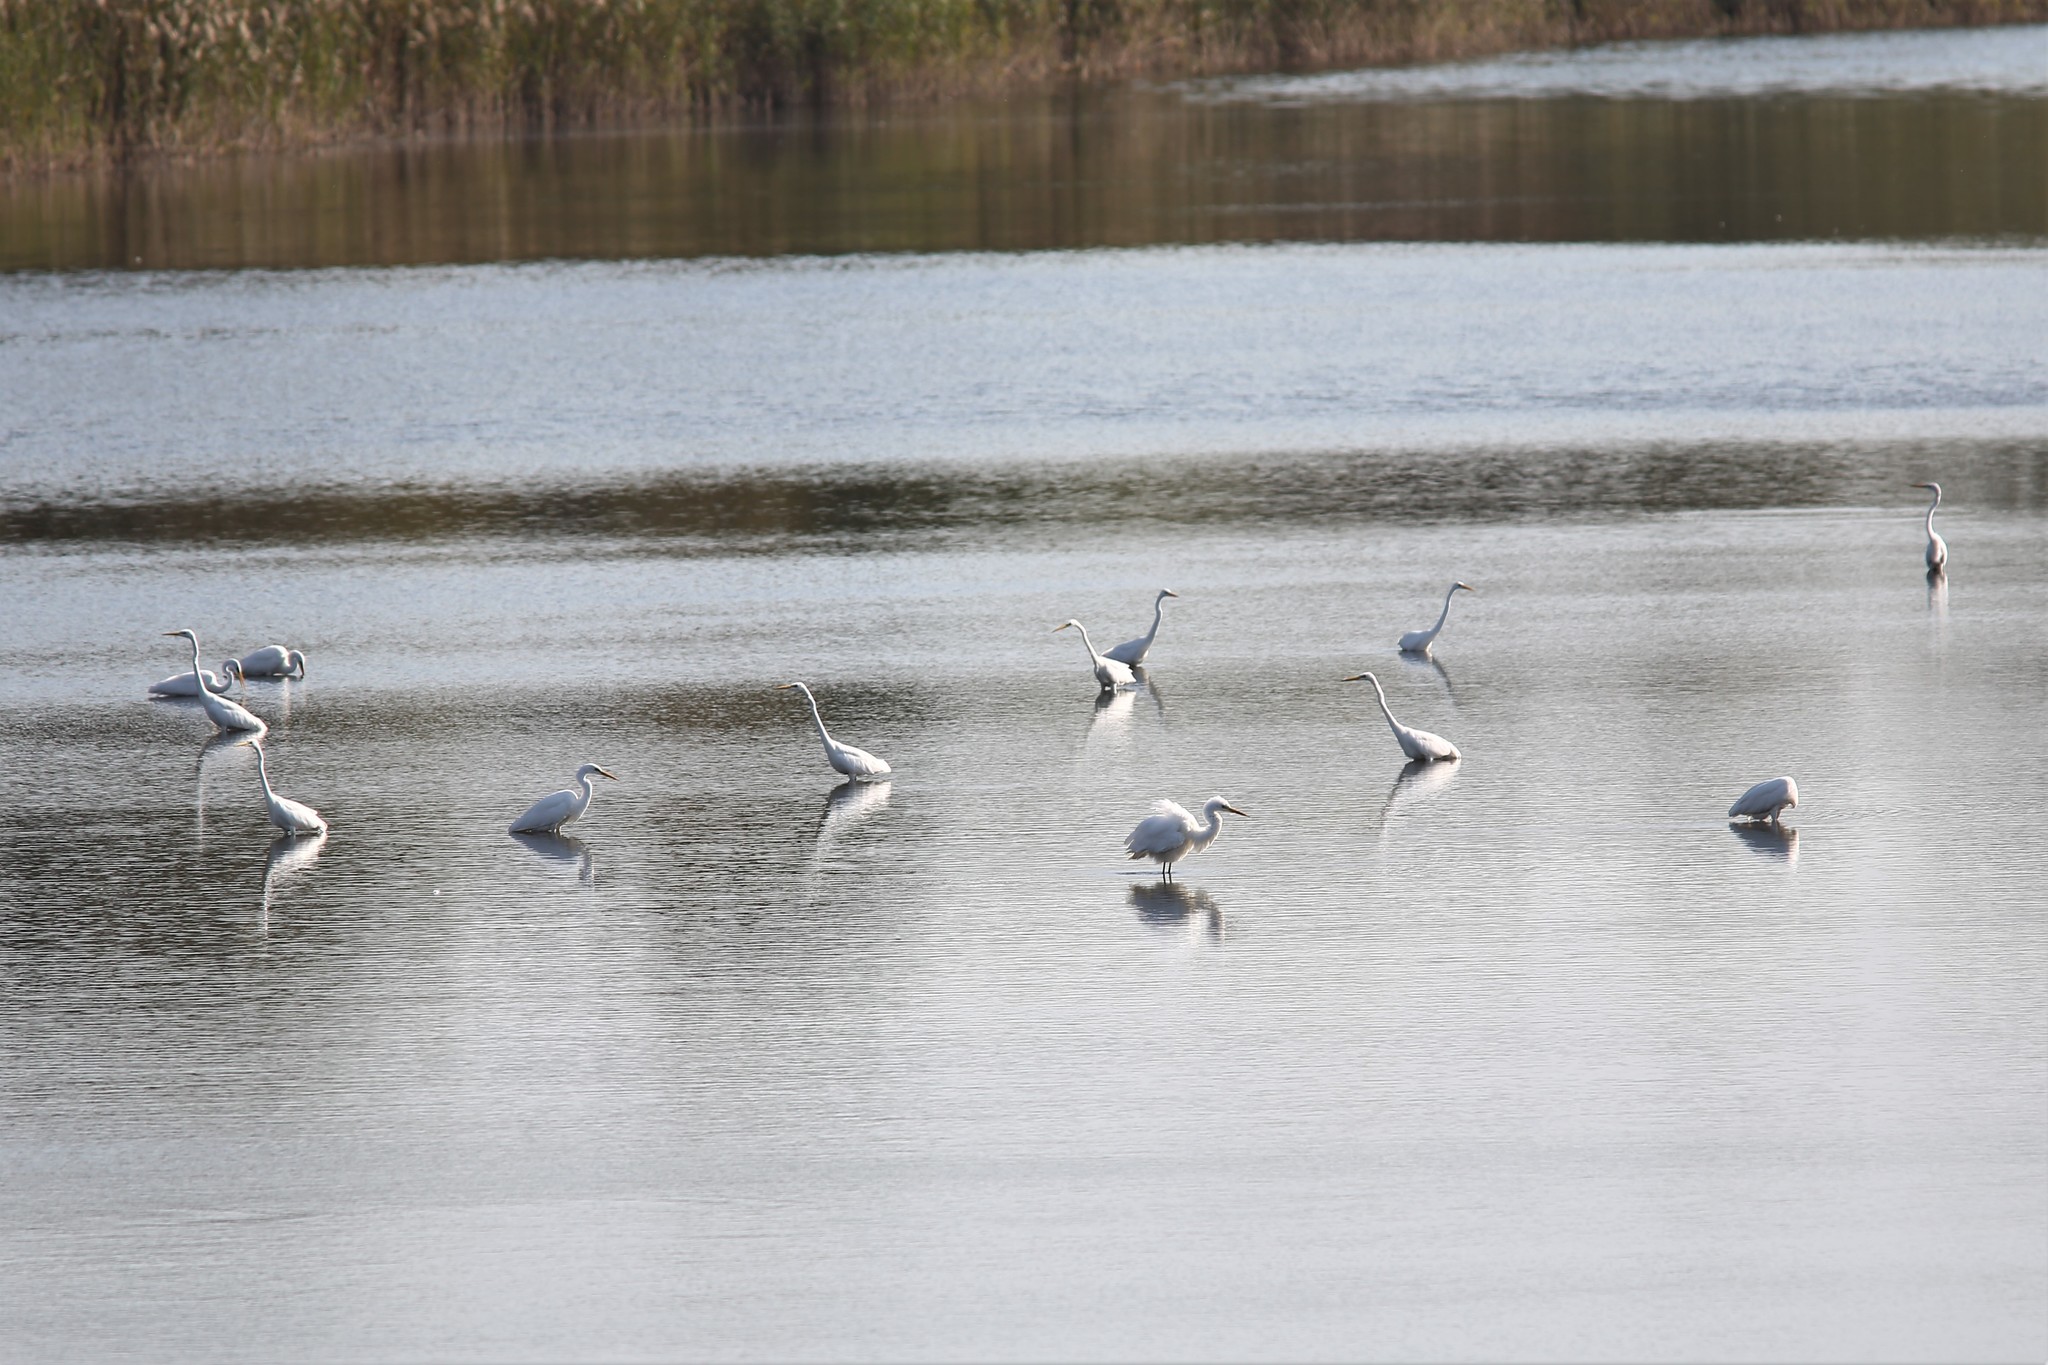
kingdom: Animalia
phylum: Chordata
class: Aves
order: Pelecaniformes
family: Ardeidae
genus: Ardea
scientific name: Ardea alba
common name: Great egret
